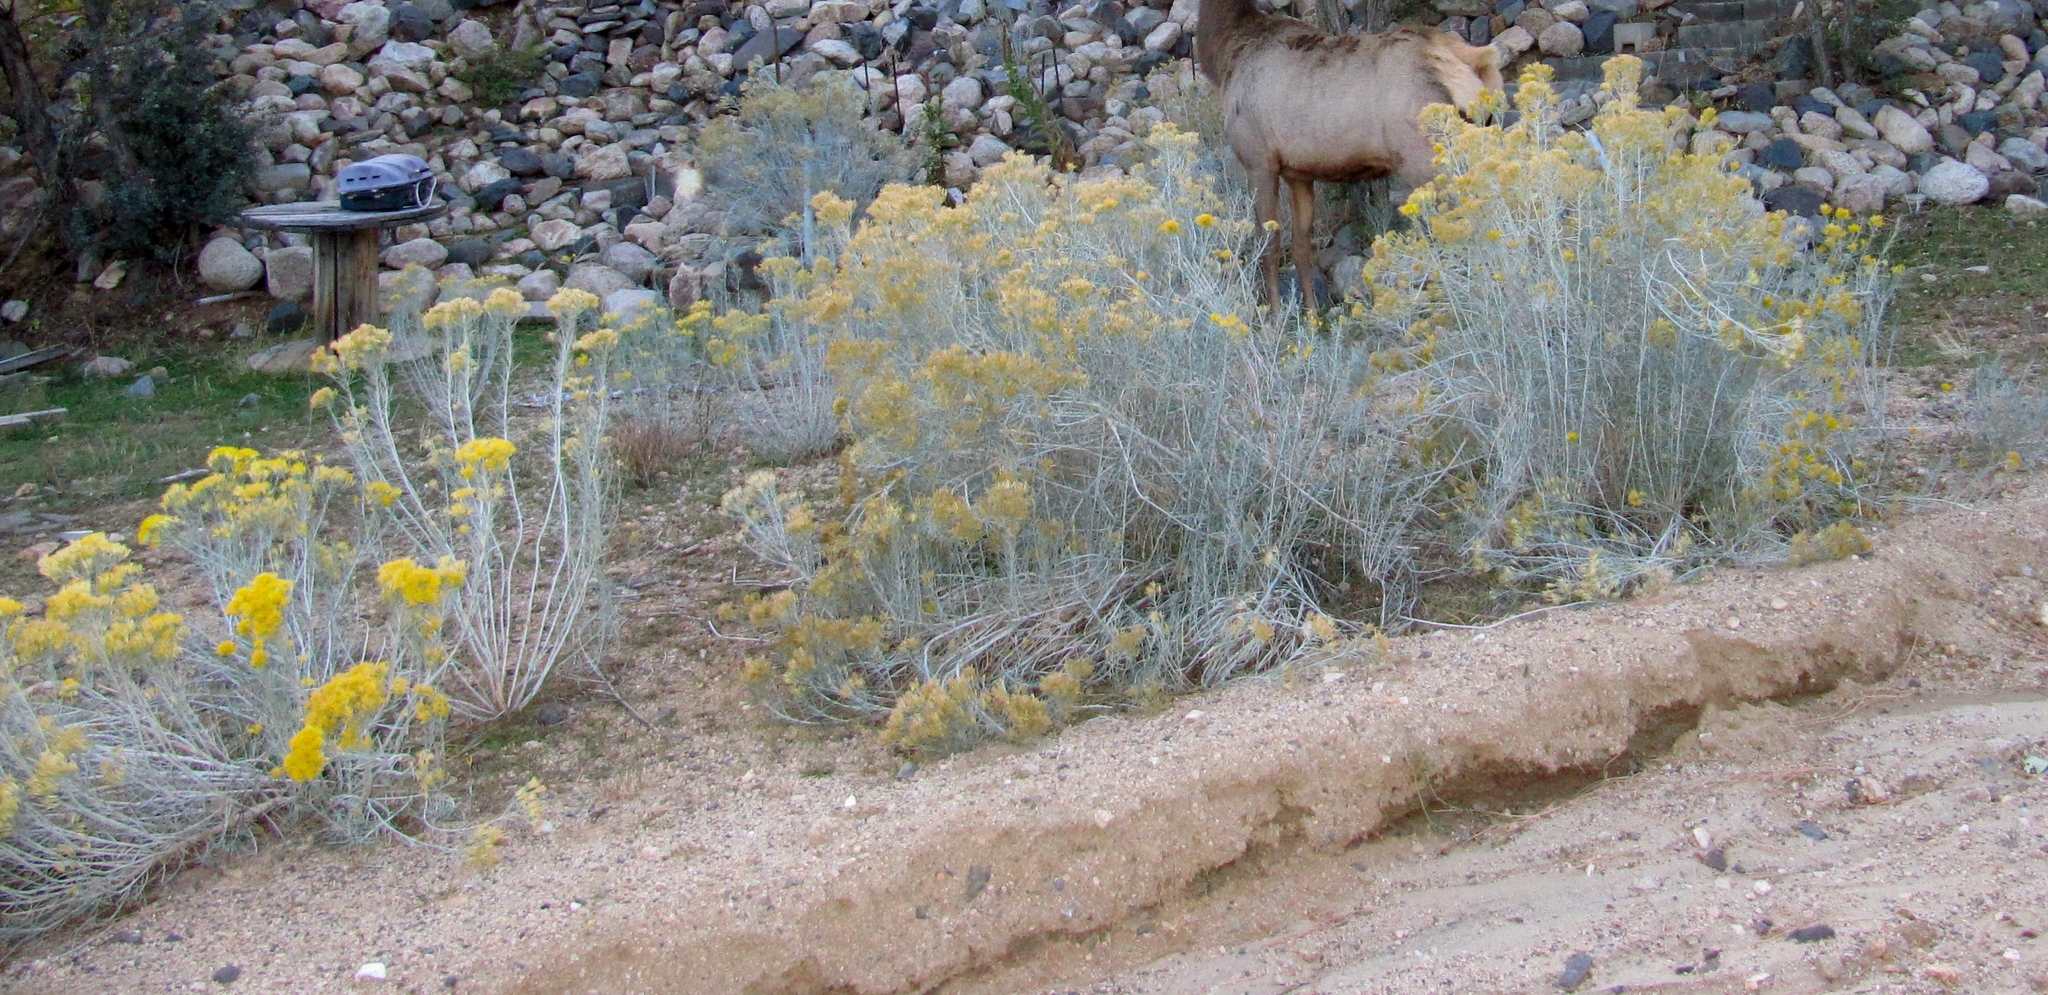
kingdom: Plantae
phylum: Tracheophyta
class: Magnoliopsida
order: Asterales
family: Asteraceae
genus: Ericameria
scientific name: Ericameria nauseosa
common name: Rubber rabbitbrush
